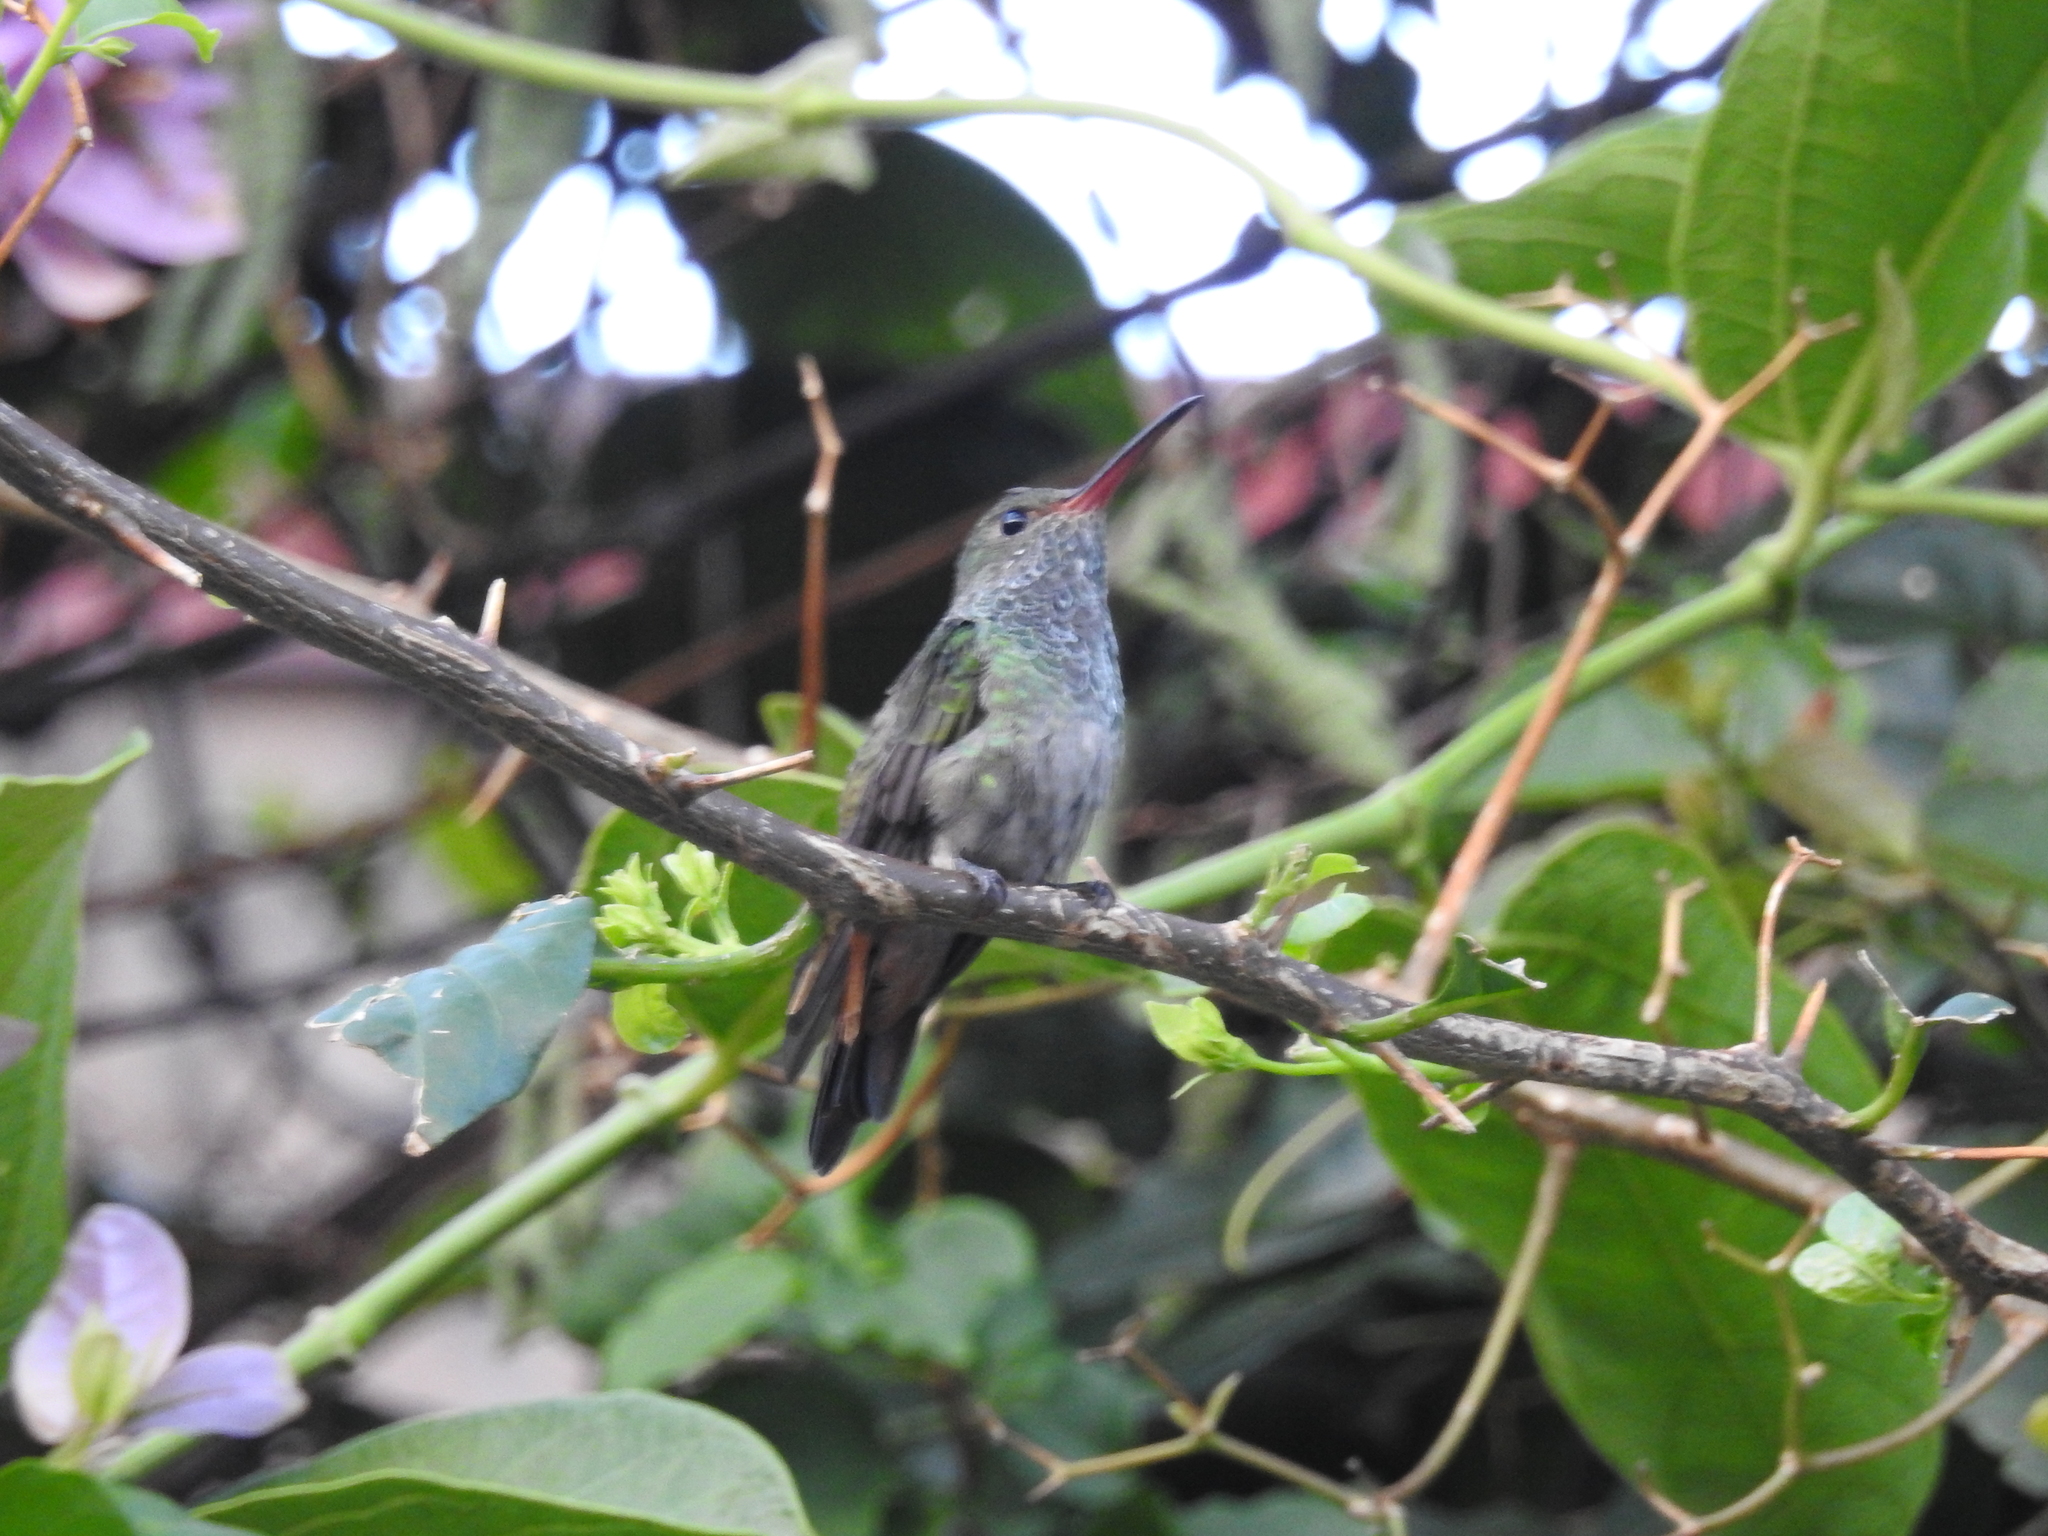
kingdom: Animalia
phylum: Chordata
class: Aves
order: Apodiformes
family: Trochilidae
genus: Amazilia
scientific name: Amazilia tzacatl
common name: Rufous-tailed hummingbird
